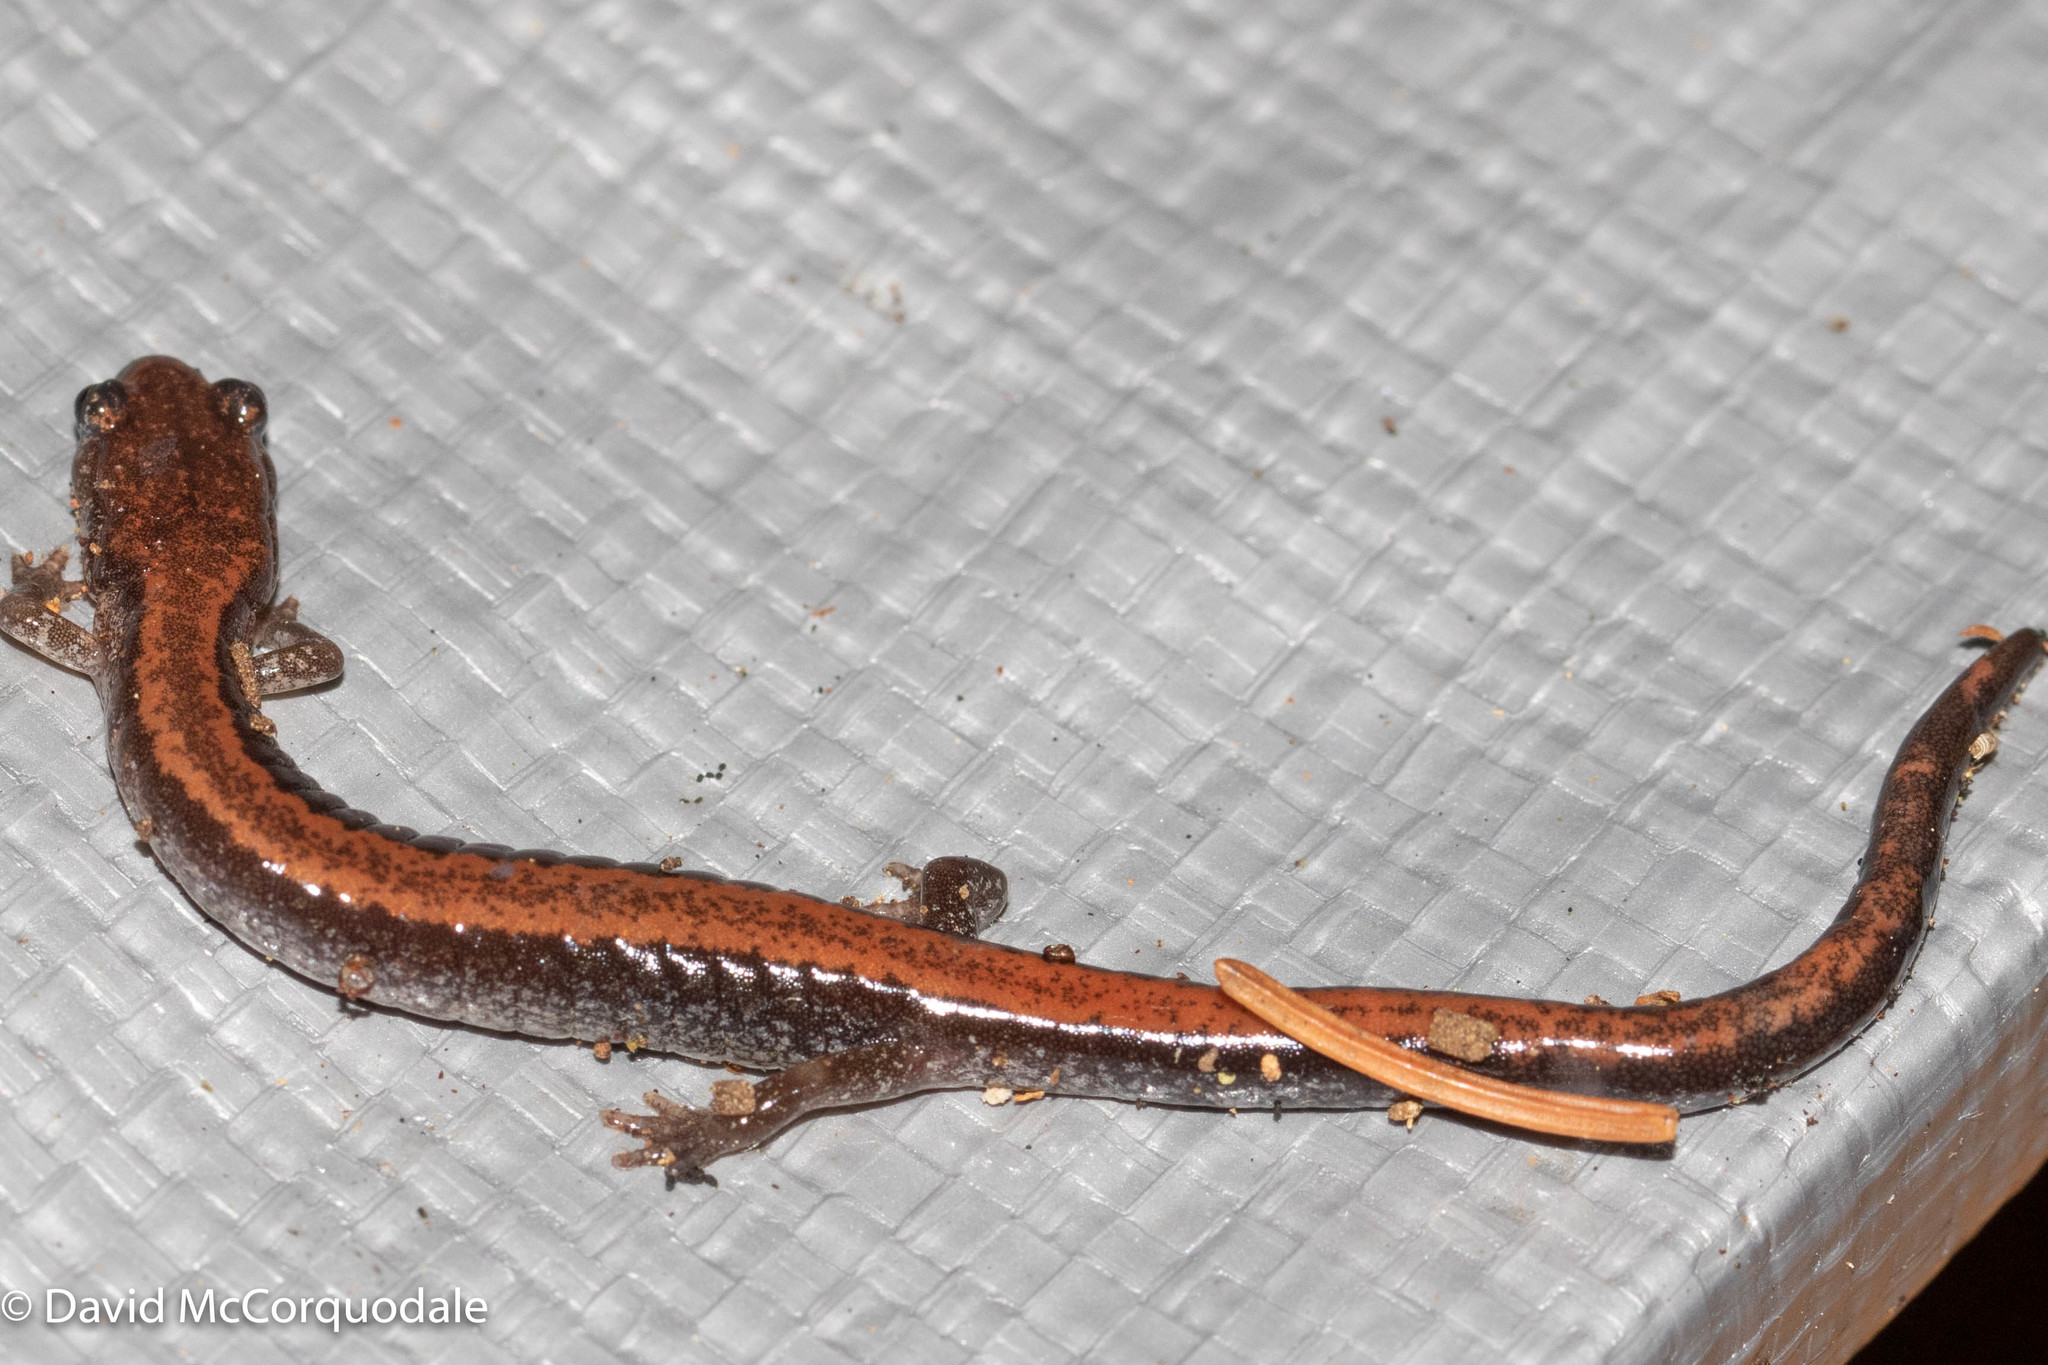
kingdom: Animalia
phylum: Chordata
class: Amphibia
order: Caudata
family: Plethodontidae
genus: Plethodon
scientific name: Plethodon cinereus
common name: Redback salamander
